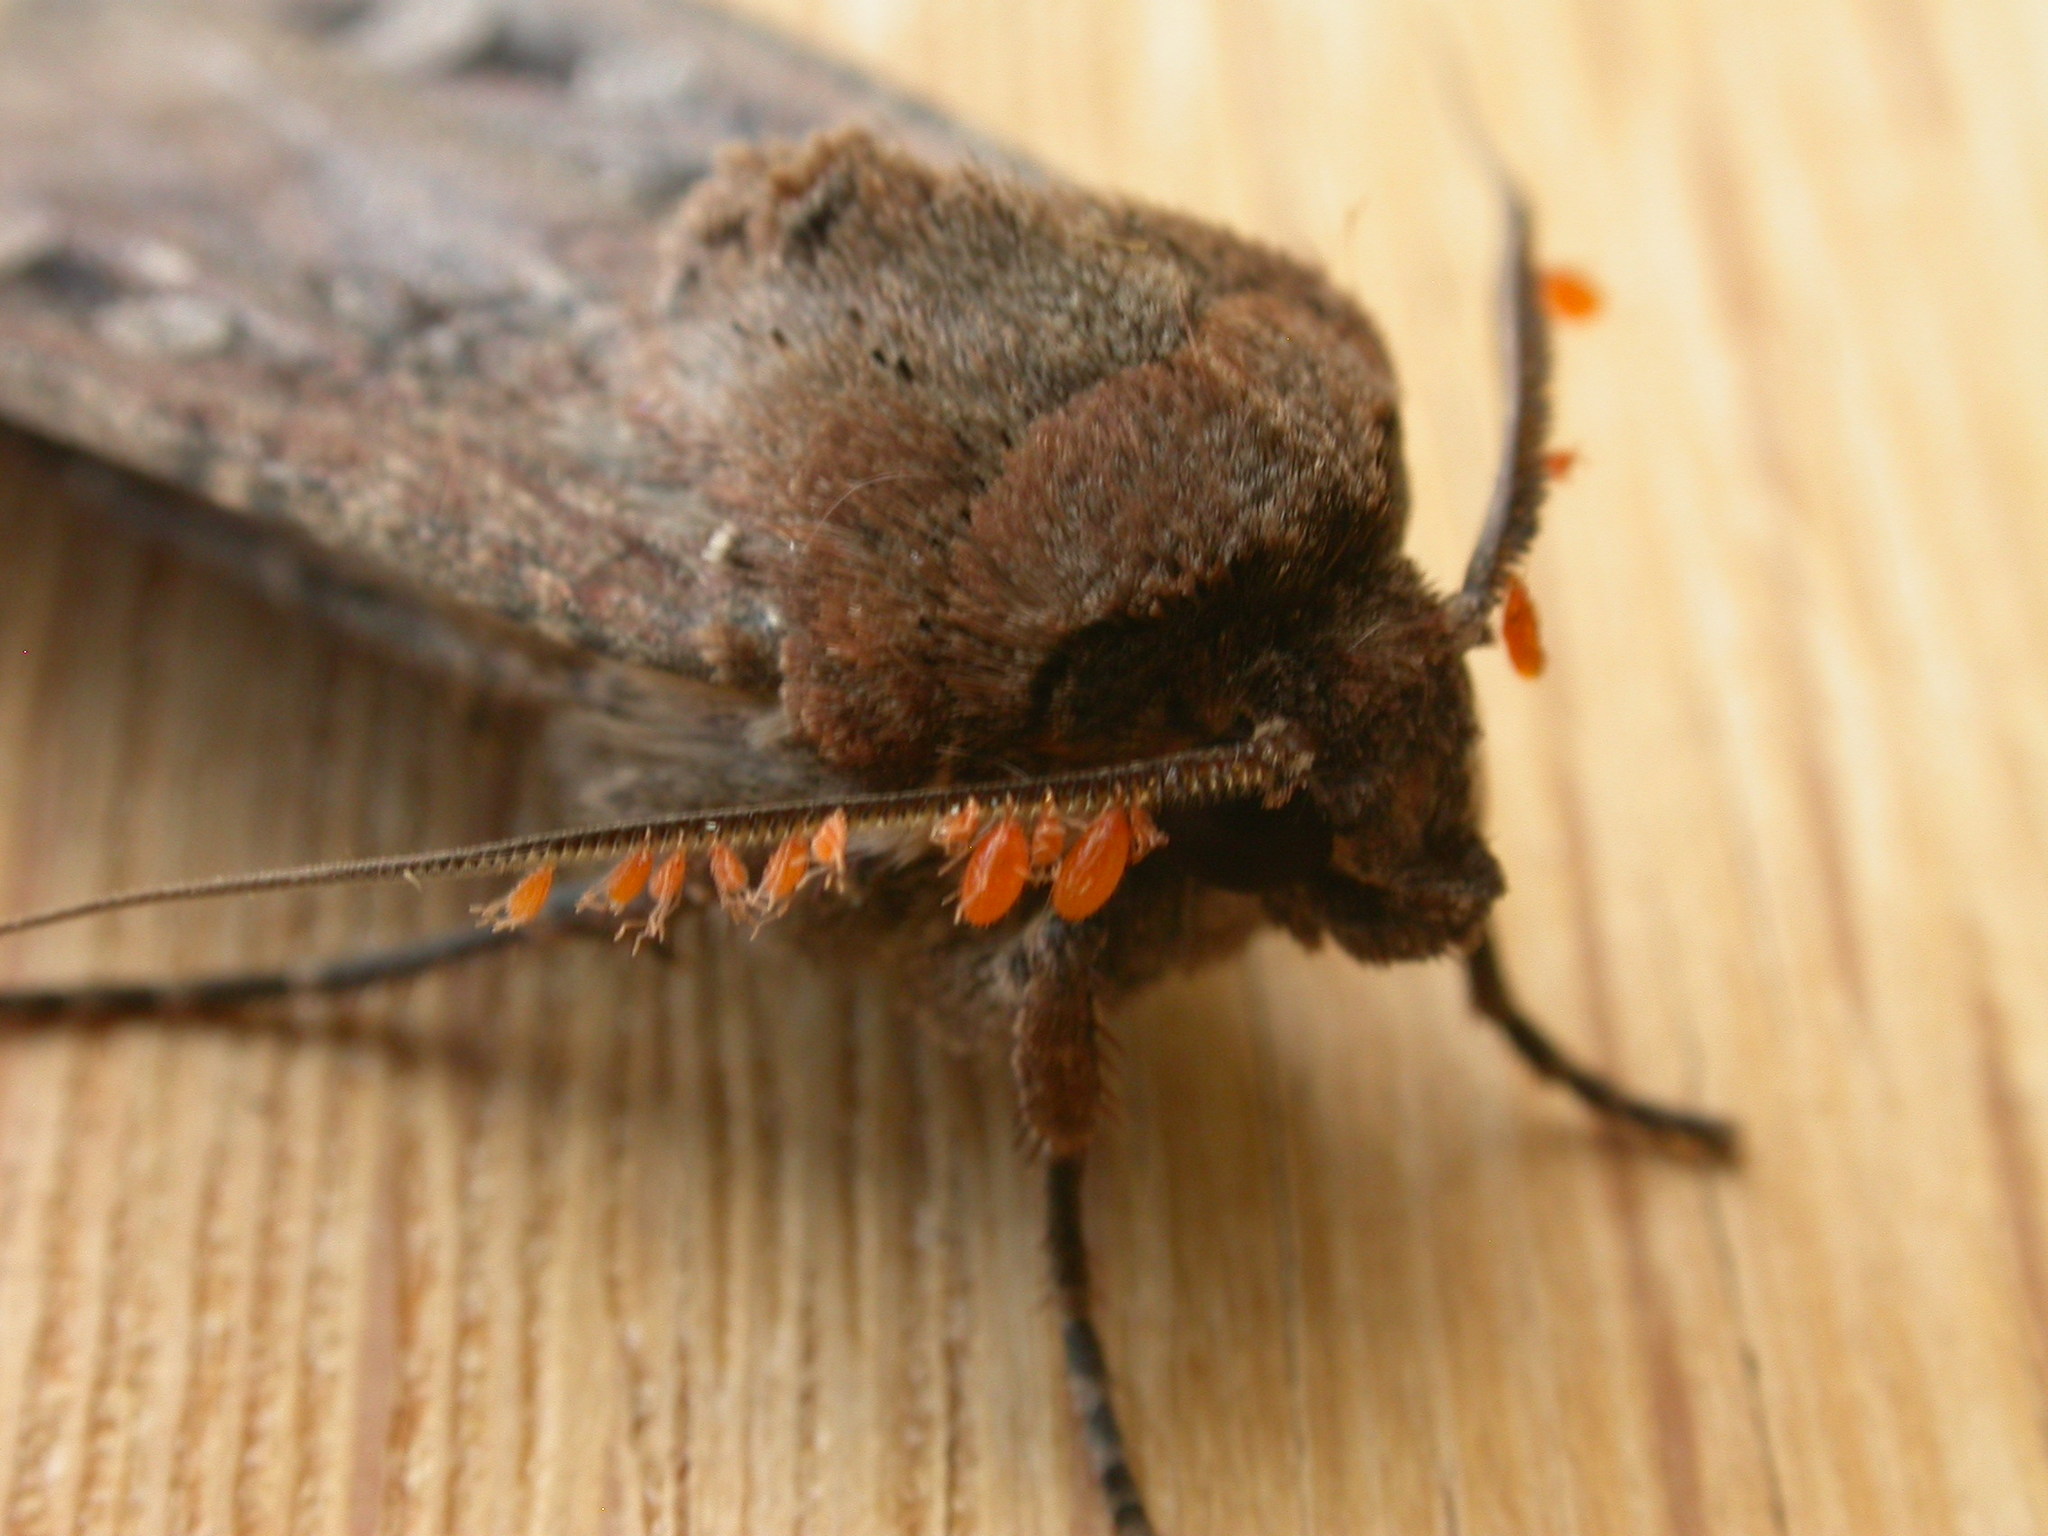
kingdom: Animalia
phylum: Arthropoda
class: Insecta
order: Lepidoptera
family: Noctuidae
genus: Agrotis
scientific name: Agrotis infusa
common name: Bogong moth
